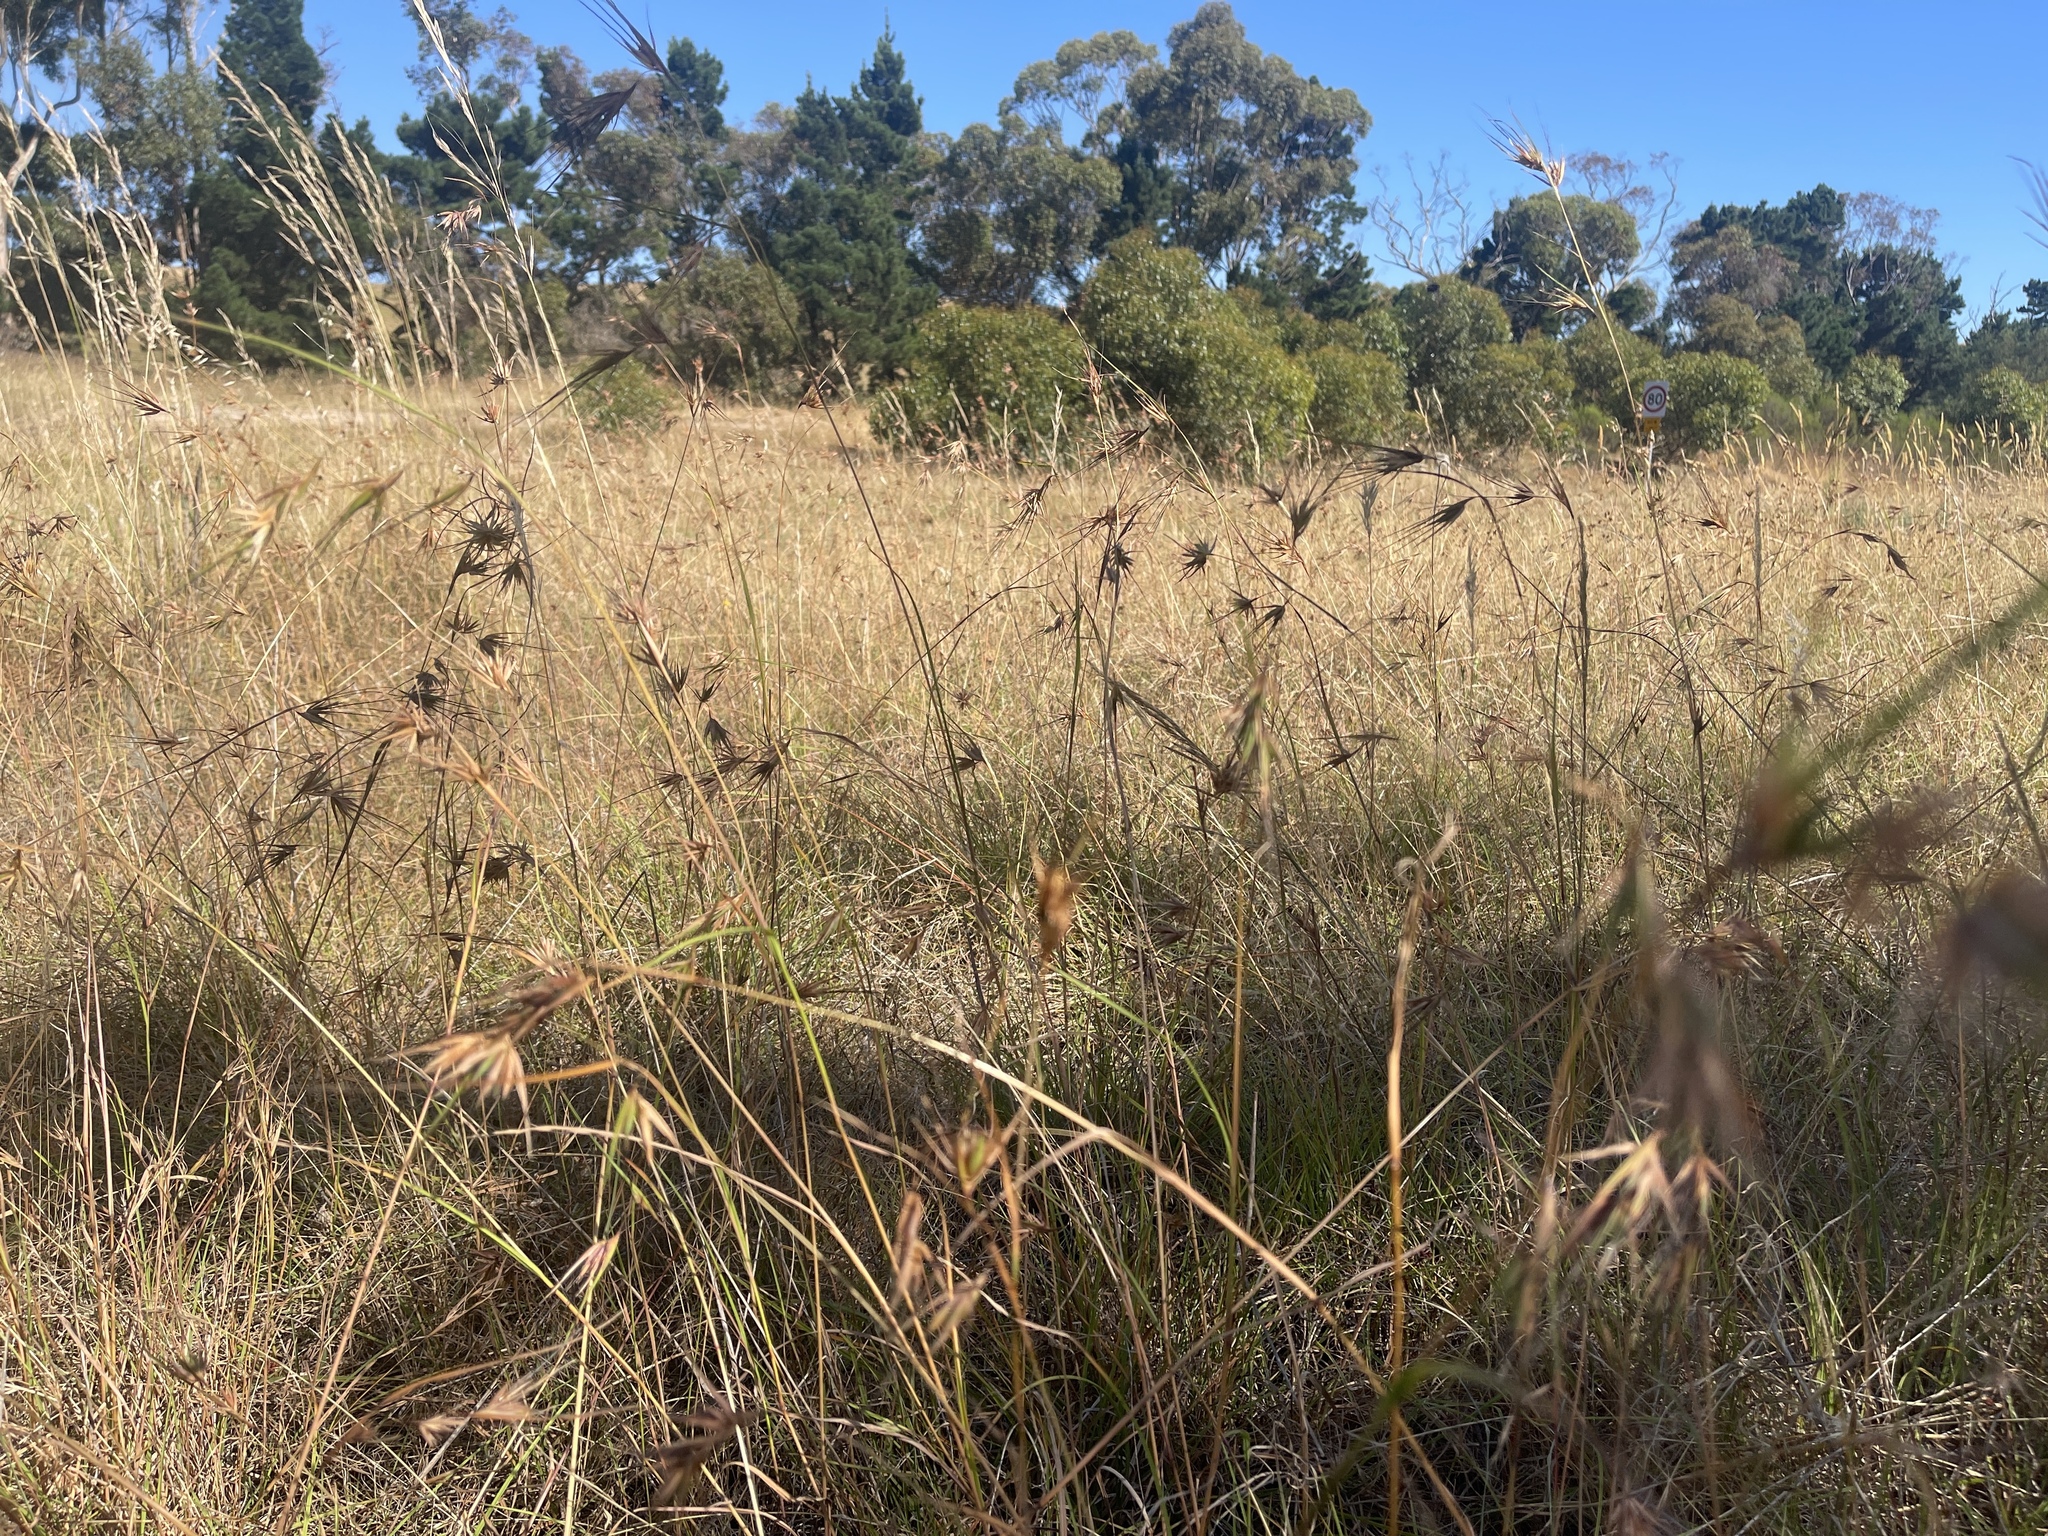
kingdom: Plantae
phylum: Tracheophyta
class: Liliopsida
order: Poales
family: Poaceae
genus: Themeda
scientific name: Themeda triandra
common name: Kangaroo grass
